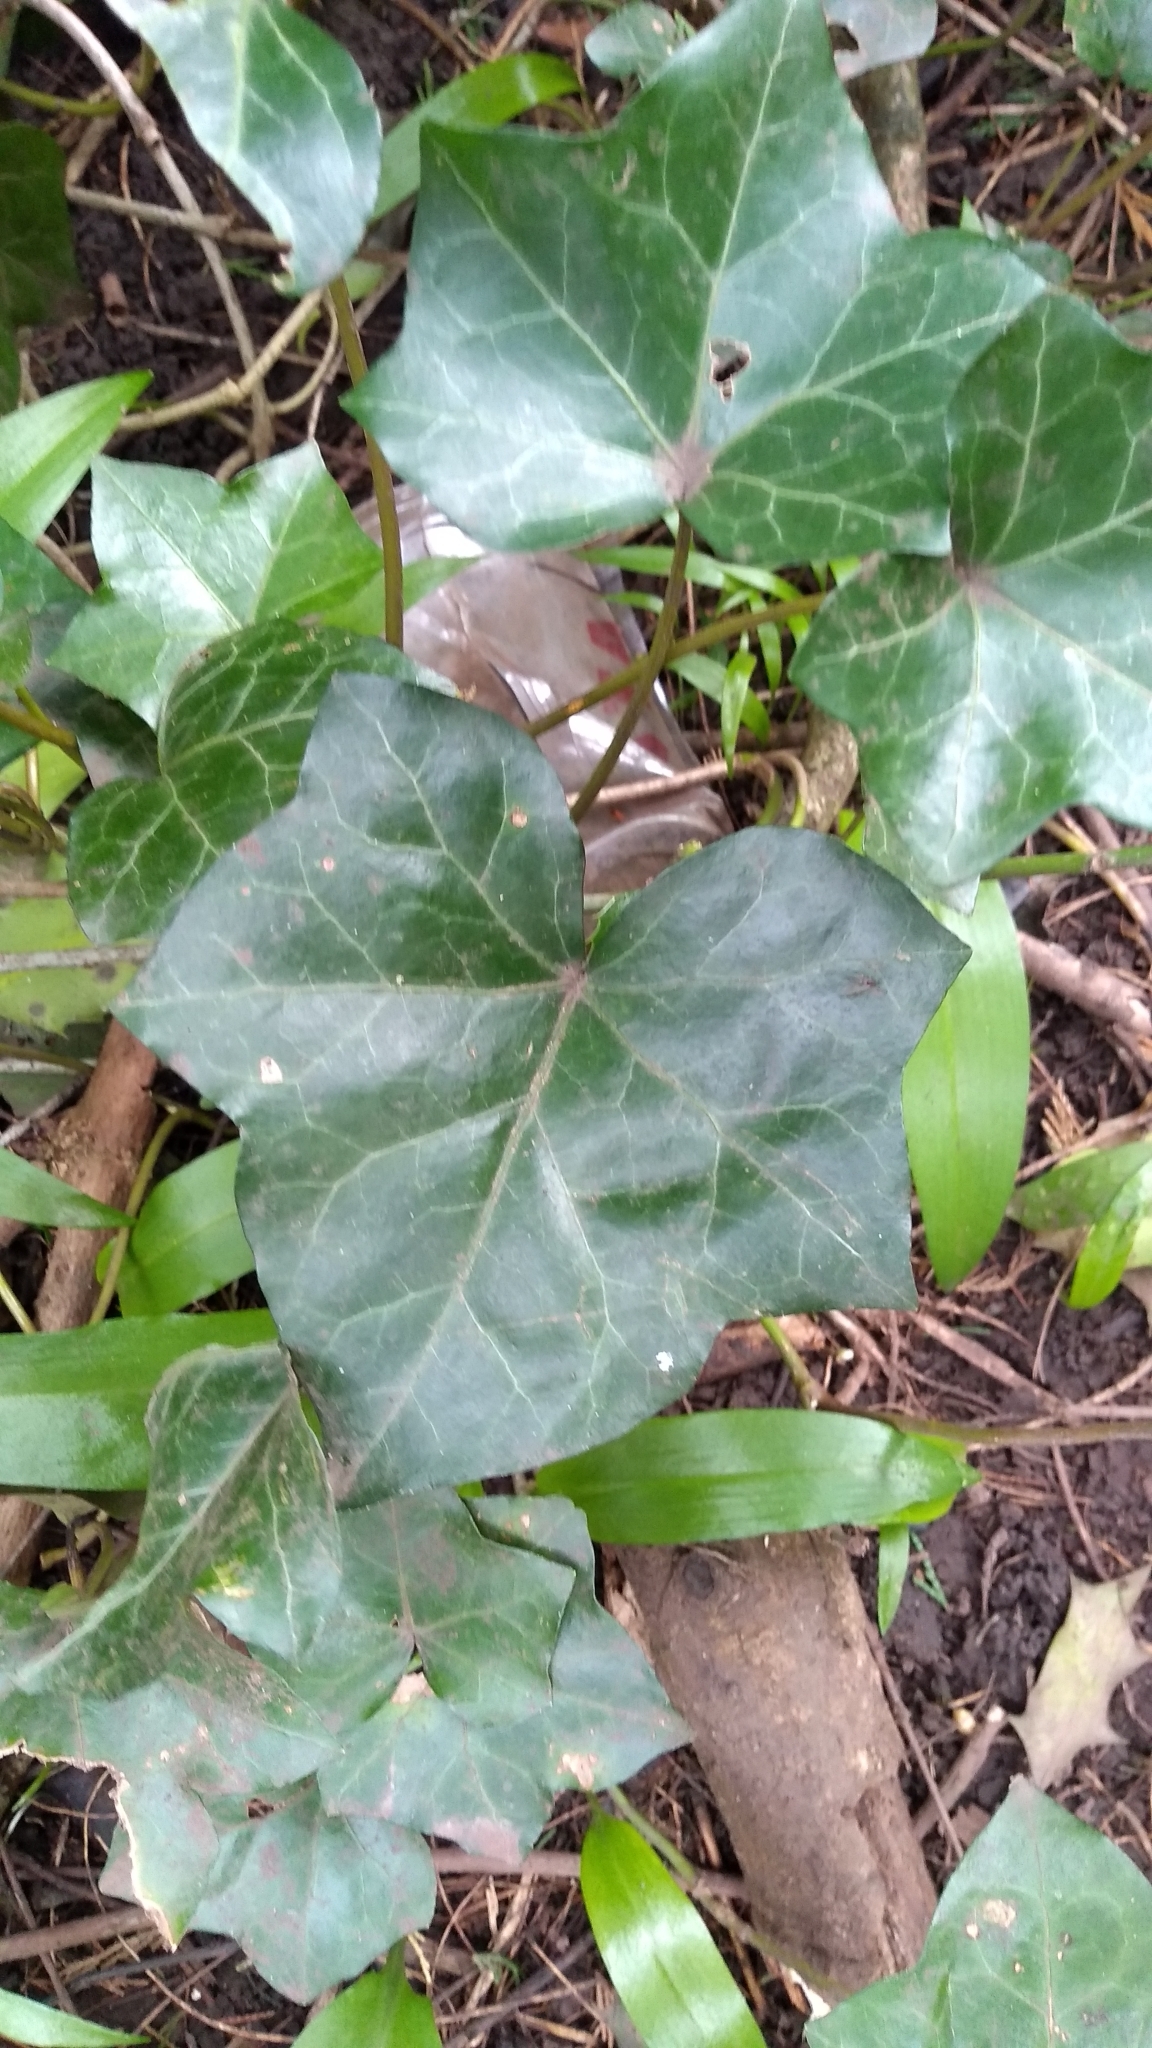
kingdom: Plantae
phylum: Tracheophyta
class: Magnoliopsida
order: Apiales
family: Araliaceae
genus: Hedera
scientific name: Hedera helix
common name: Ivy
